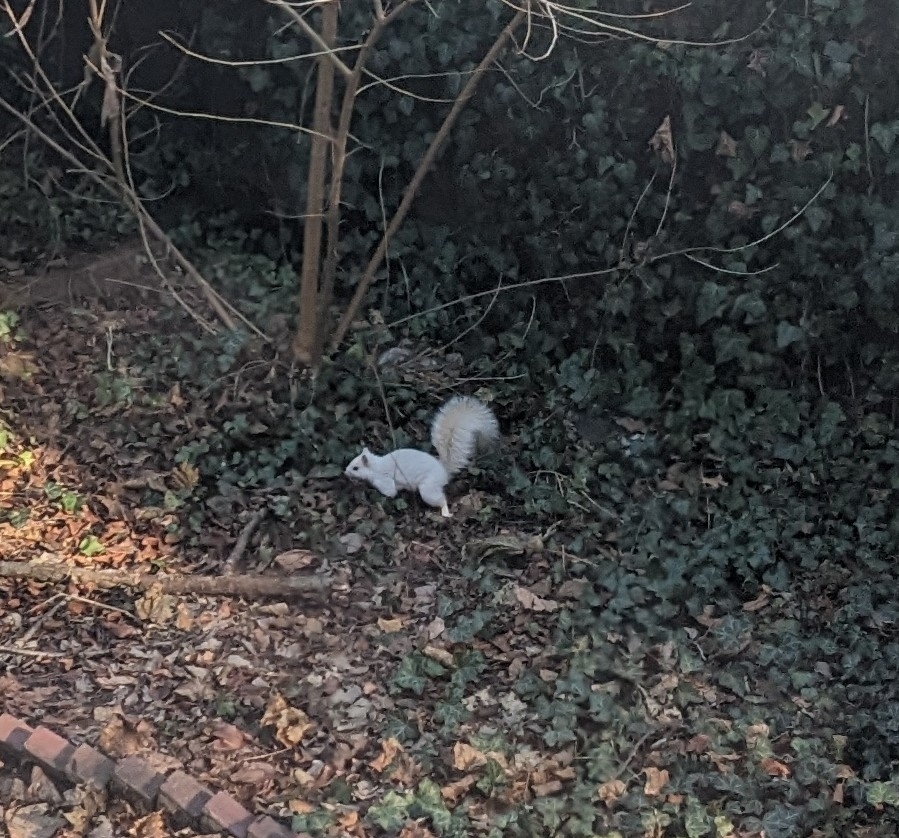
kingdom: Animalia
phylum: Chordata
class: Mammalia
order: Rodentia
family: Sciuridae
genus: Sciurus
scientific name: Sciurus carolinensis
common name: Eastern gray squirrel
